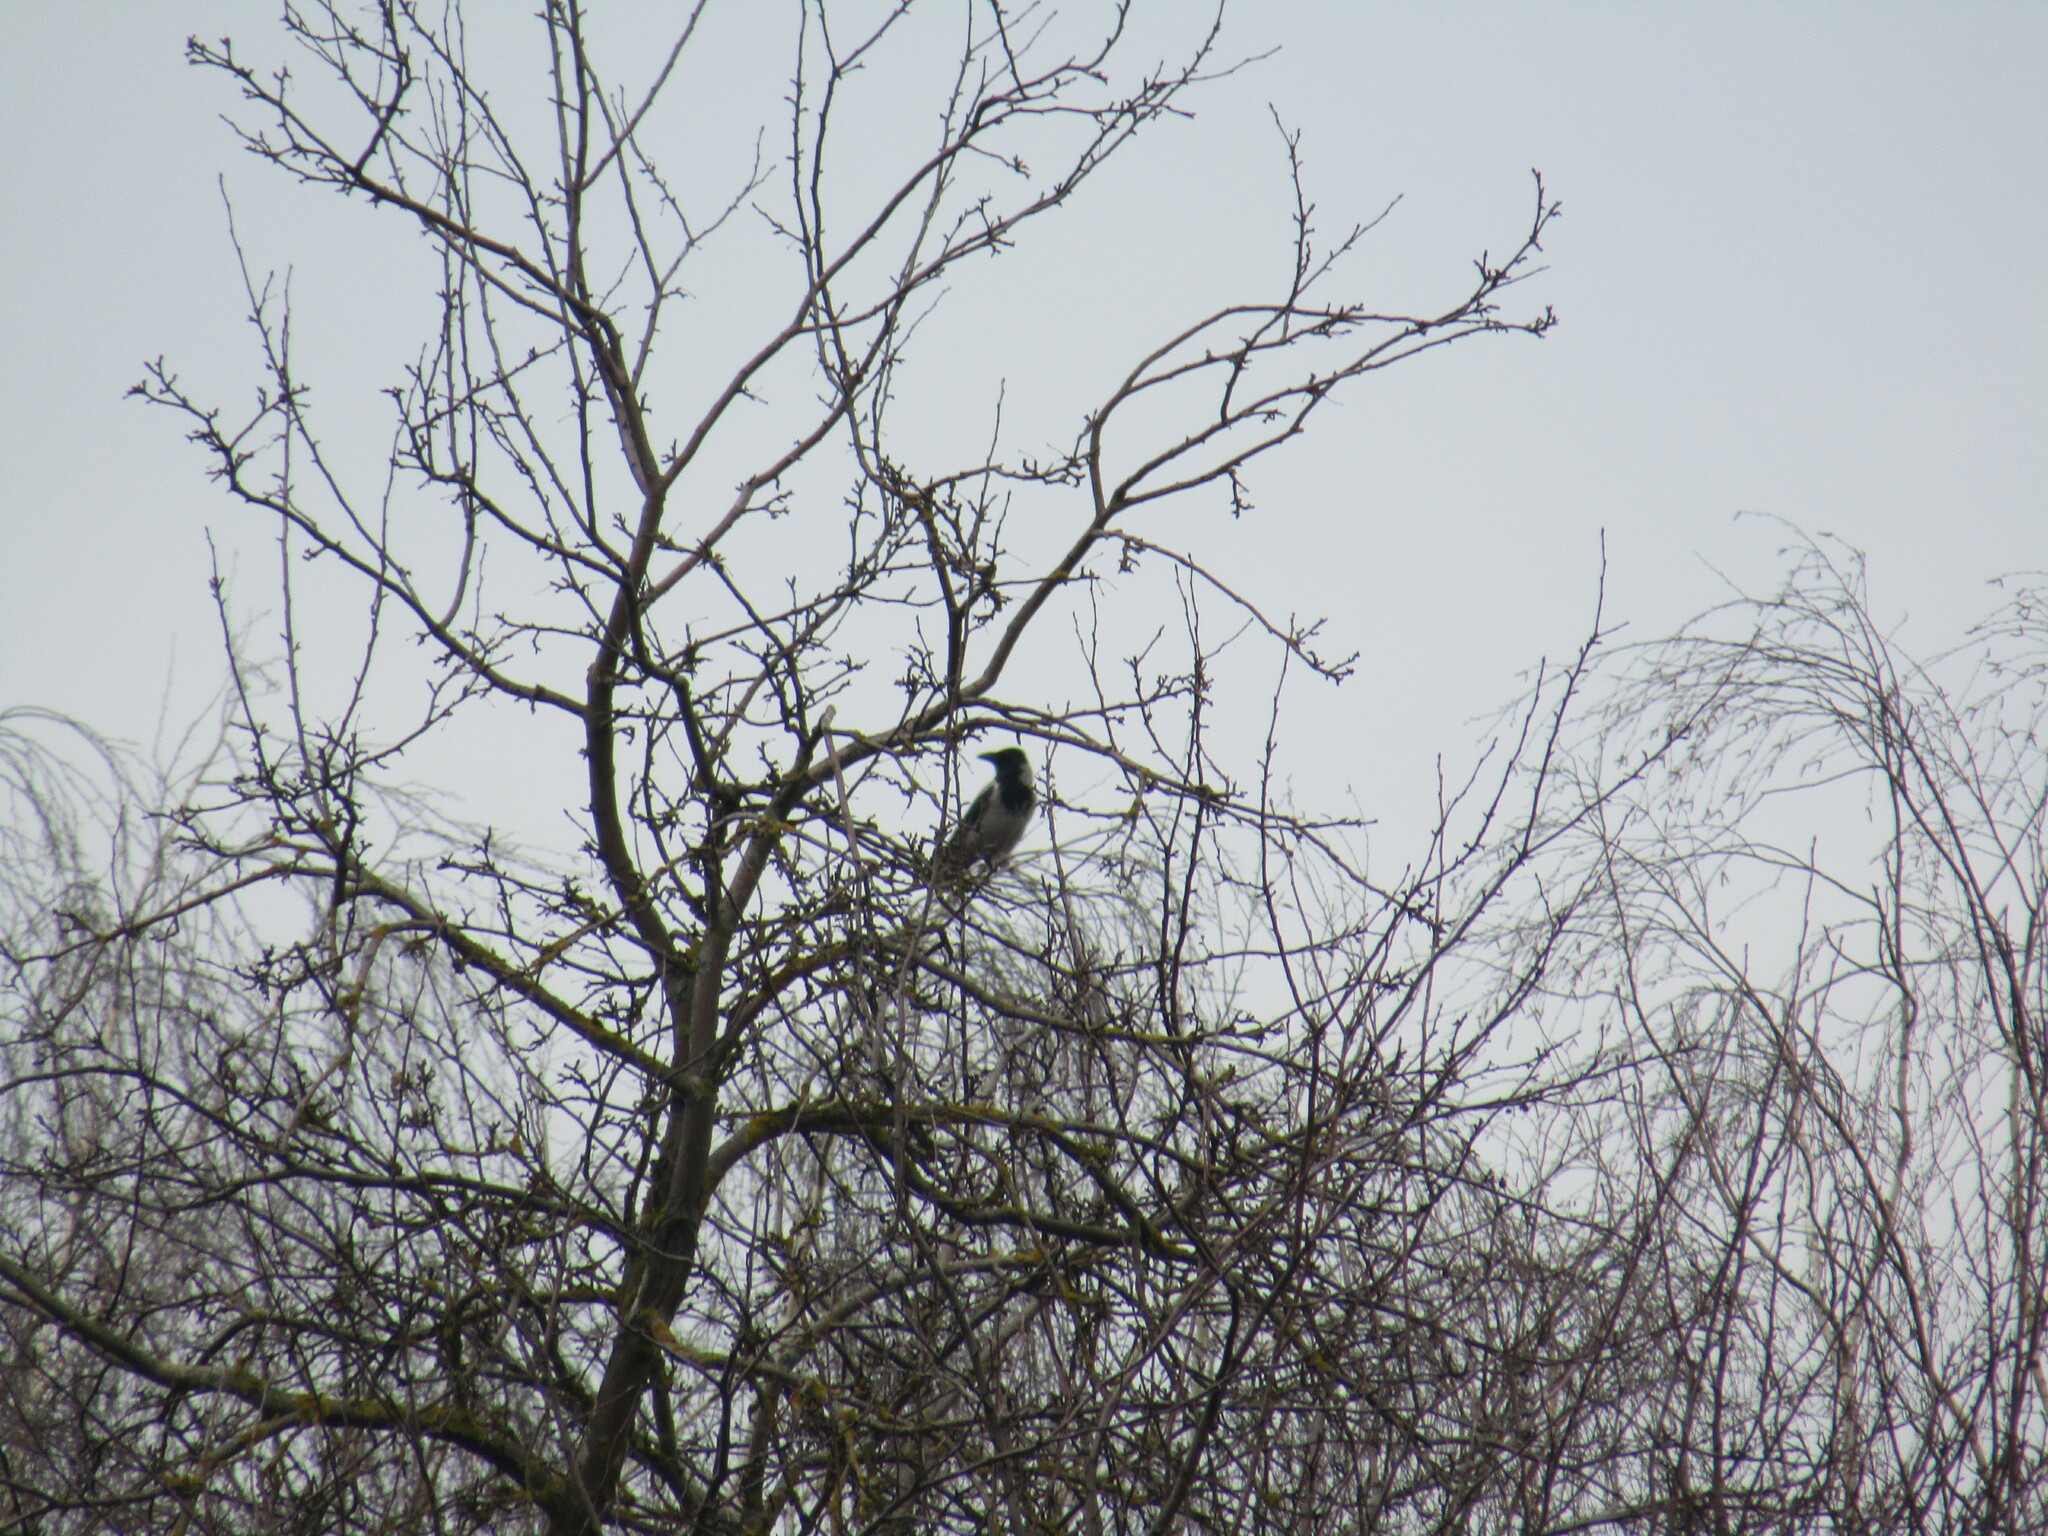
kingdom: Animalia
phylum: Chordata
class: Aves
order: Passeriformes
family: Corvidae
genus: Corvus
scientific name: Corvus cornix
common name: Hooded crow
